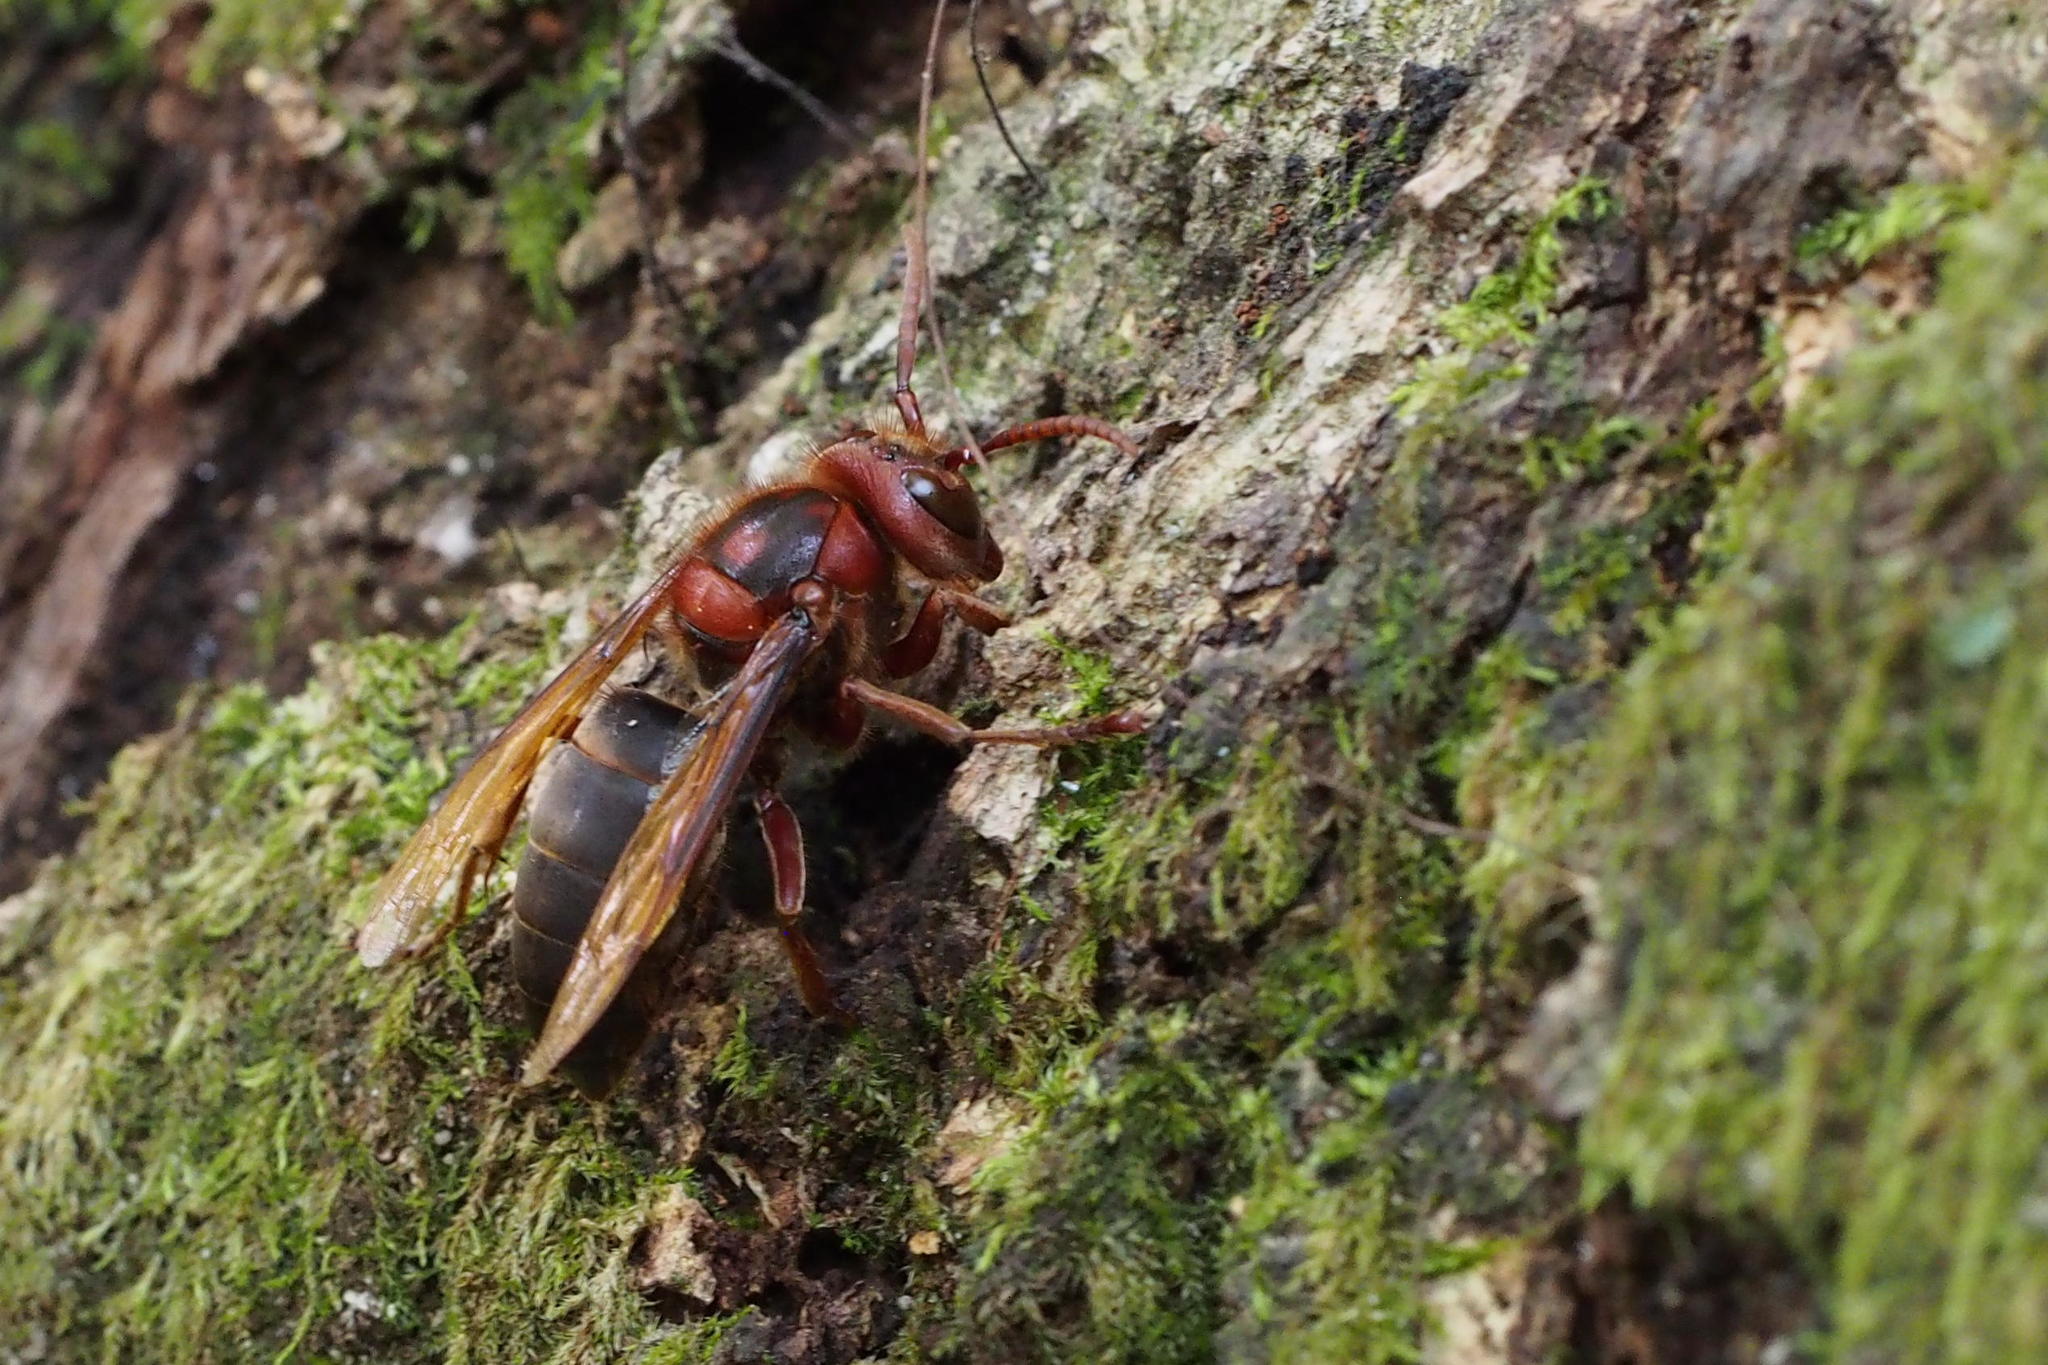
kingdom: Animalia
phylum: Arthropoda
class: Insecta
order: Hymenoptera
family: Vespidae
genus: Vespa
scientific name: Vespa dybowskii
